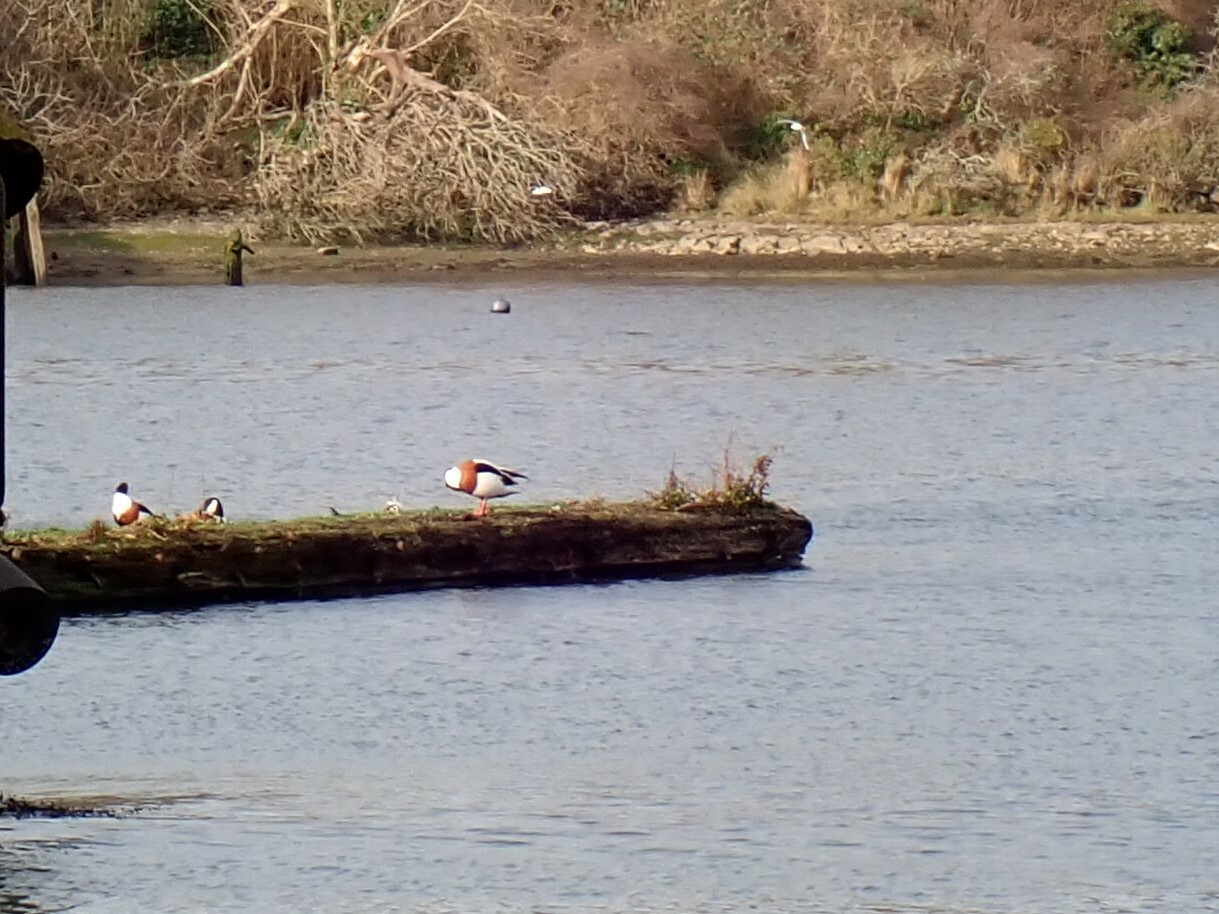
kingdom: Animalia
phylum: Chordata
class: Aves
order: Anseriformes
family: Anatidae
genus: Tadorna
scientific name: Tadorna tadorna
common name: Common shelduck
